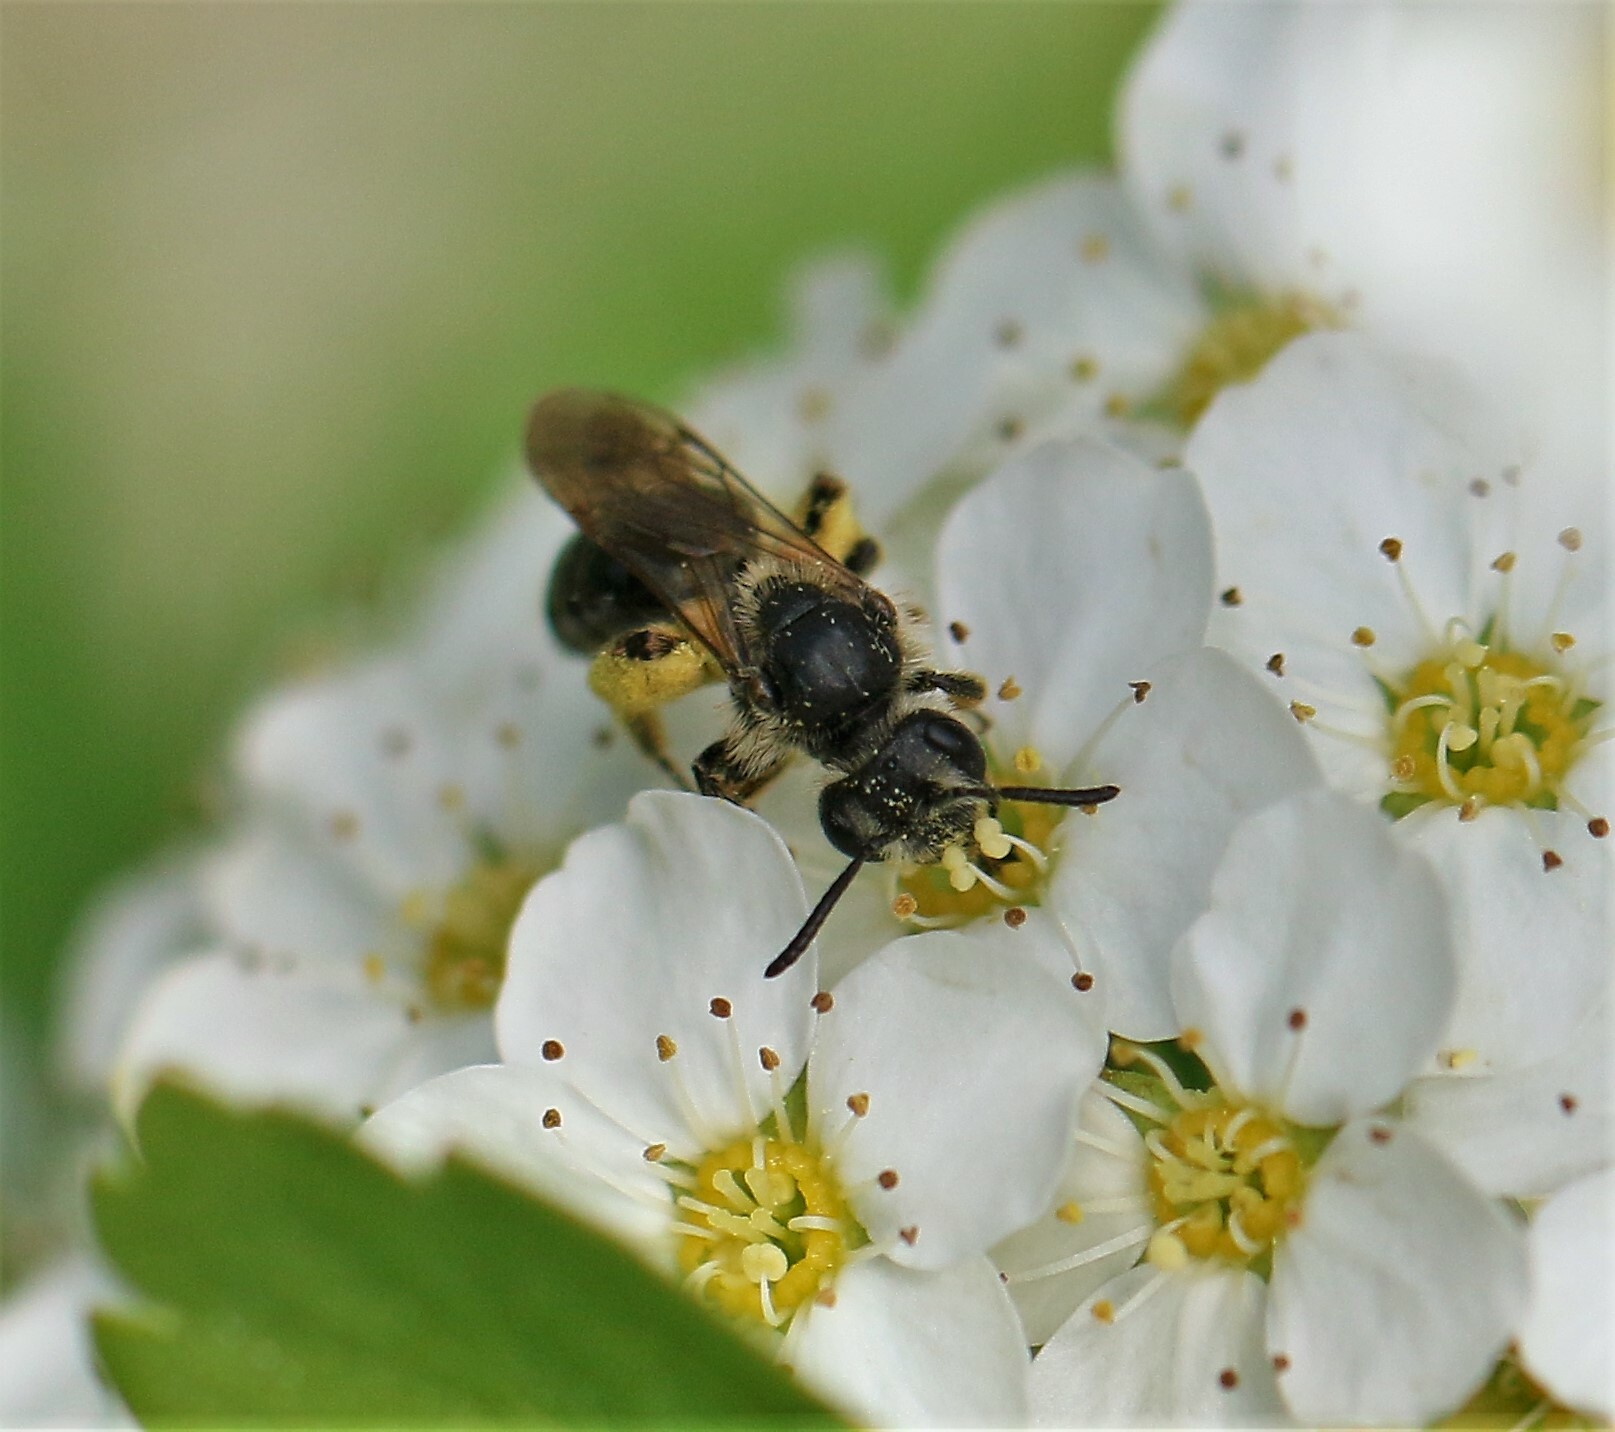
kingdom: Animalia
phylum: Arthropoda
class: Insecta
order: Hymenoptera
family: Andrenidae
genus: Andrena
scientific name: Andrena
